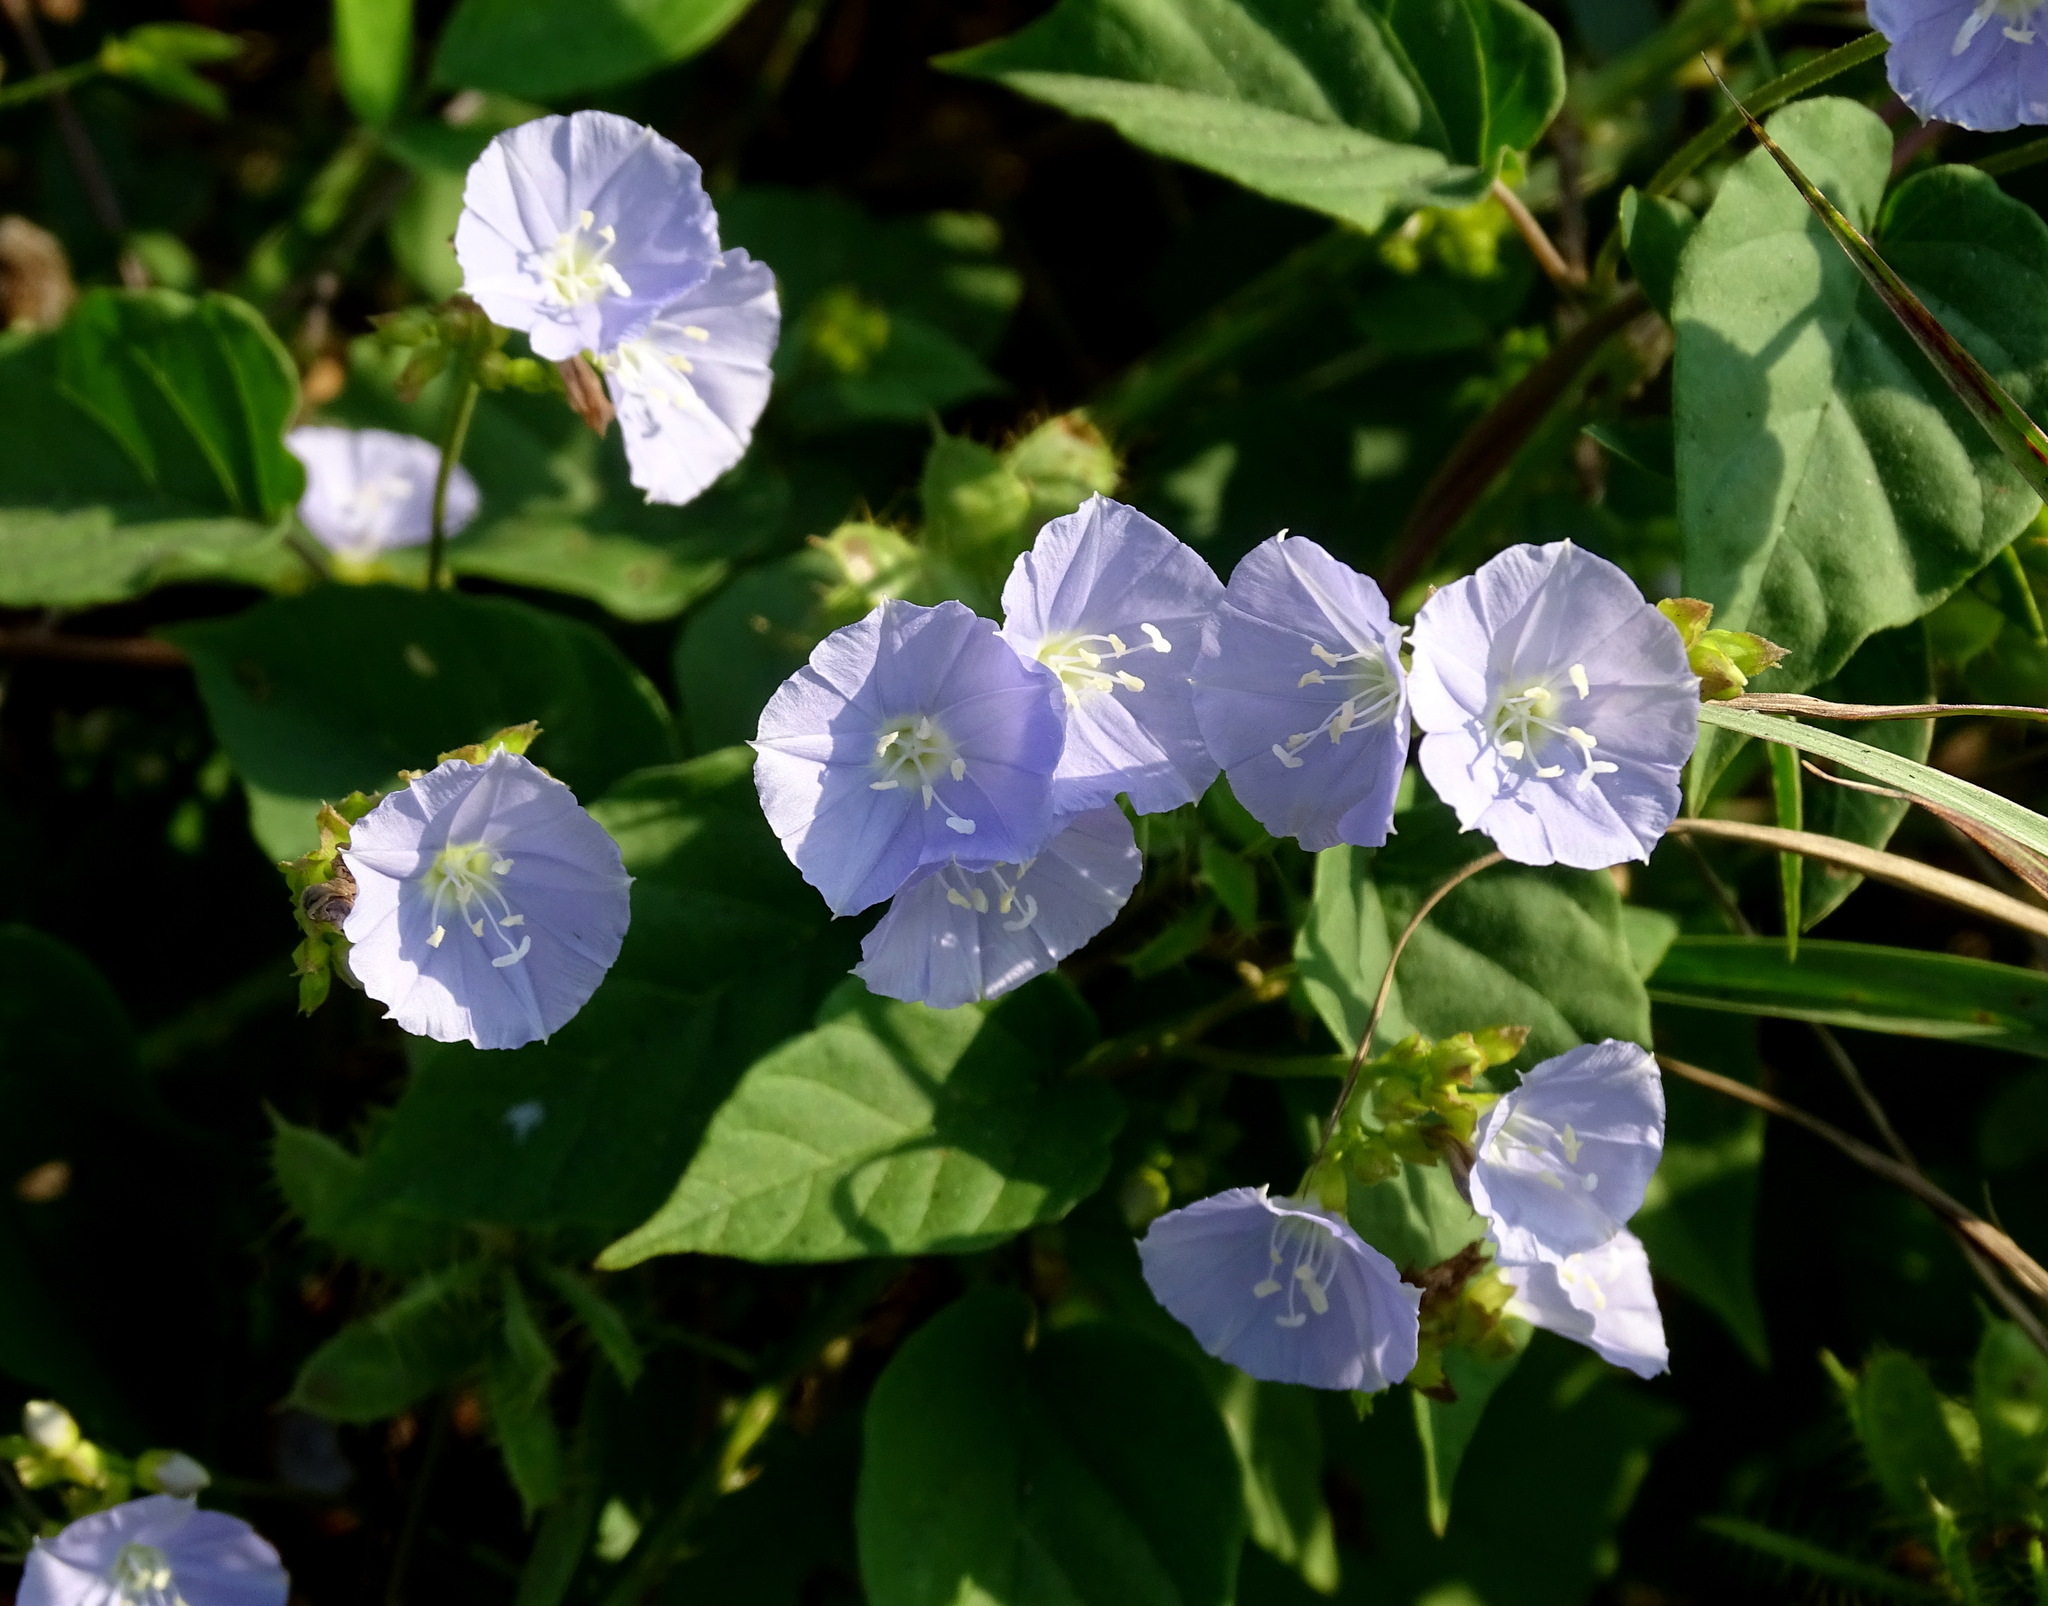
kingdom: Plantae
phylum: Tracheophyta
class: Magnoliopsida
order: Solanales
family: Convolvulaceae
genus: Jacquemontia
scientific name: Jacquemontia oaxacana
